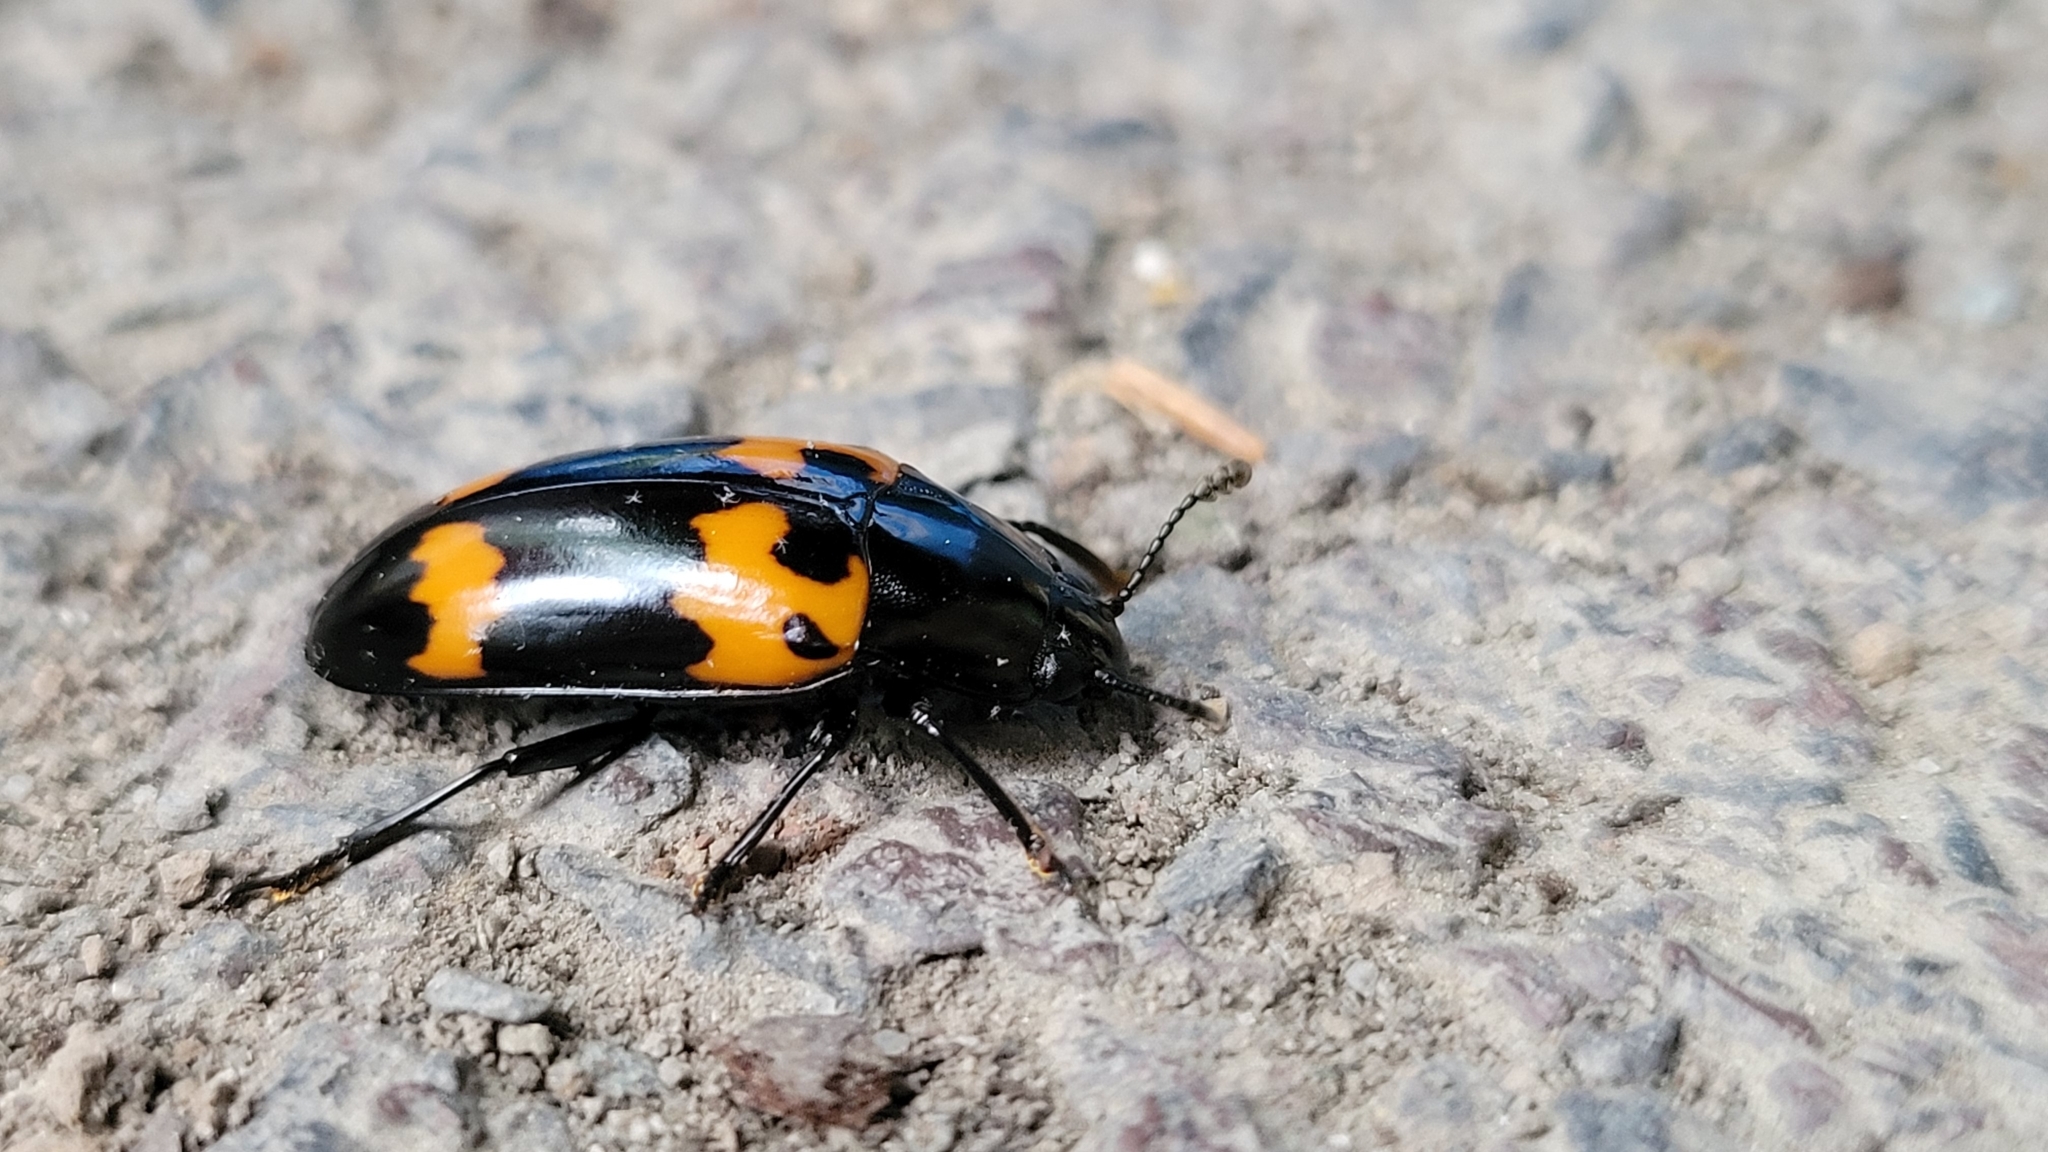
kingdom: Animalia
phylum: Arthropoda
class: Insecta
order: Coleoptera
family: Erotylidae
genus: Megalodacne
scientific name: Megalodacne heros
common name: Pleasing fungus beetle
